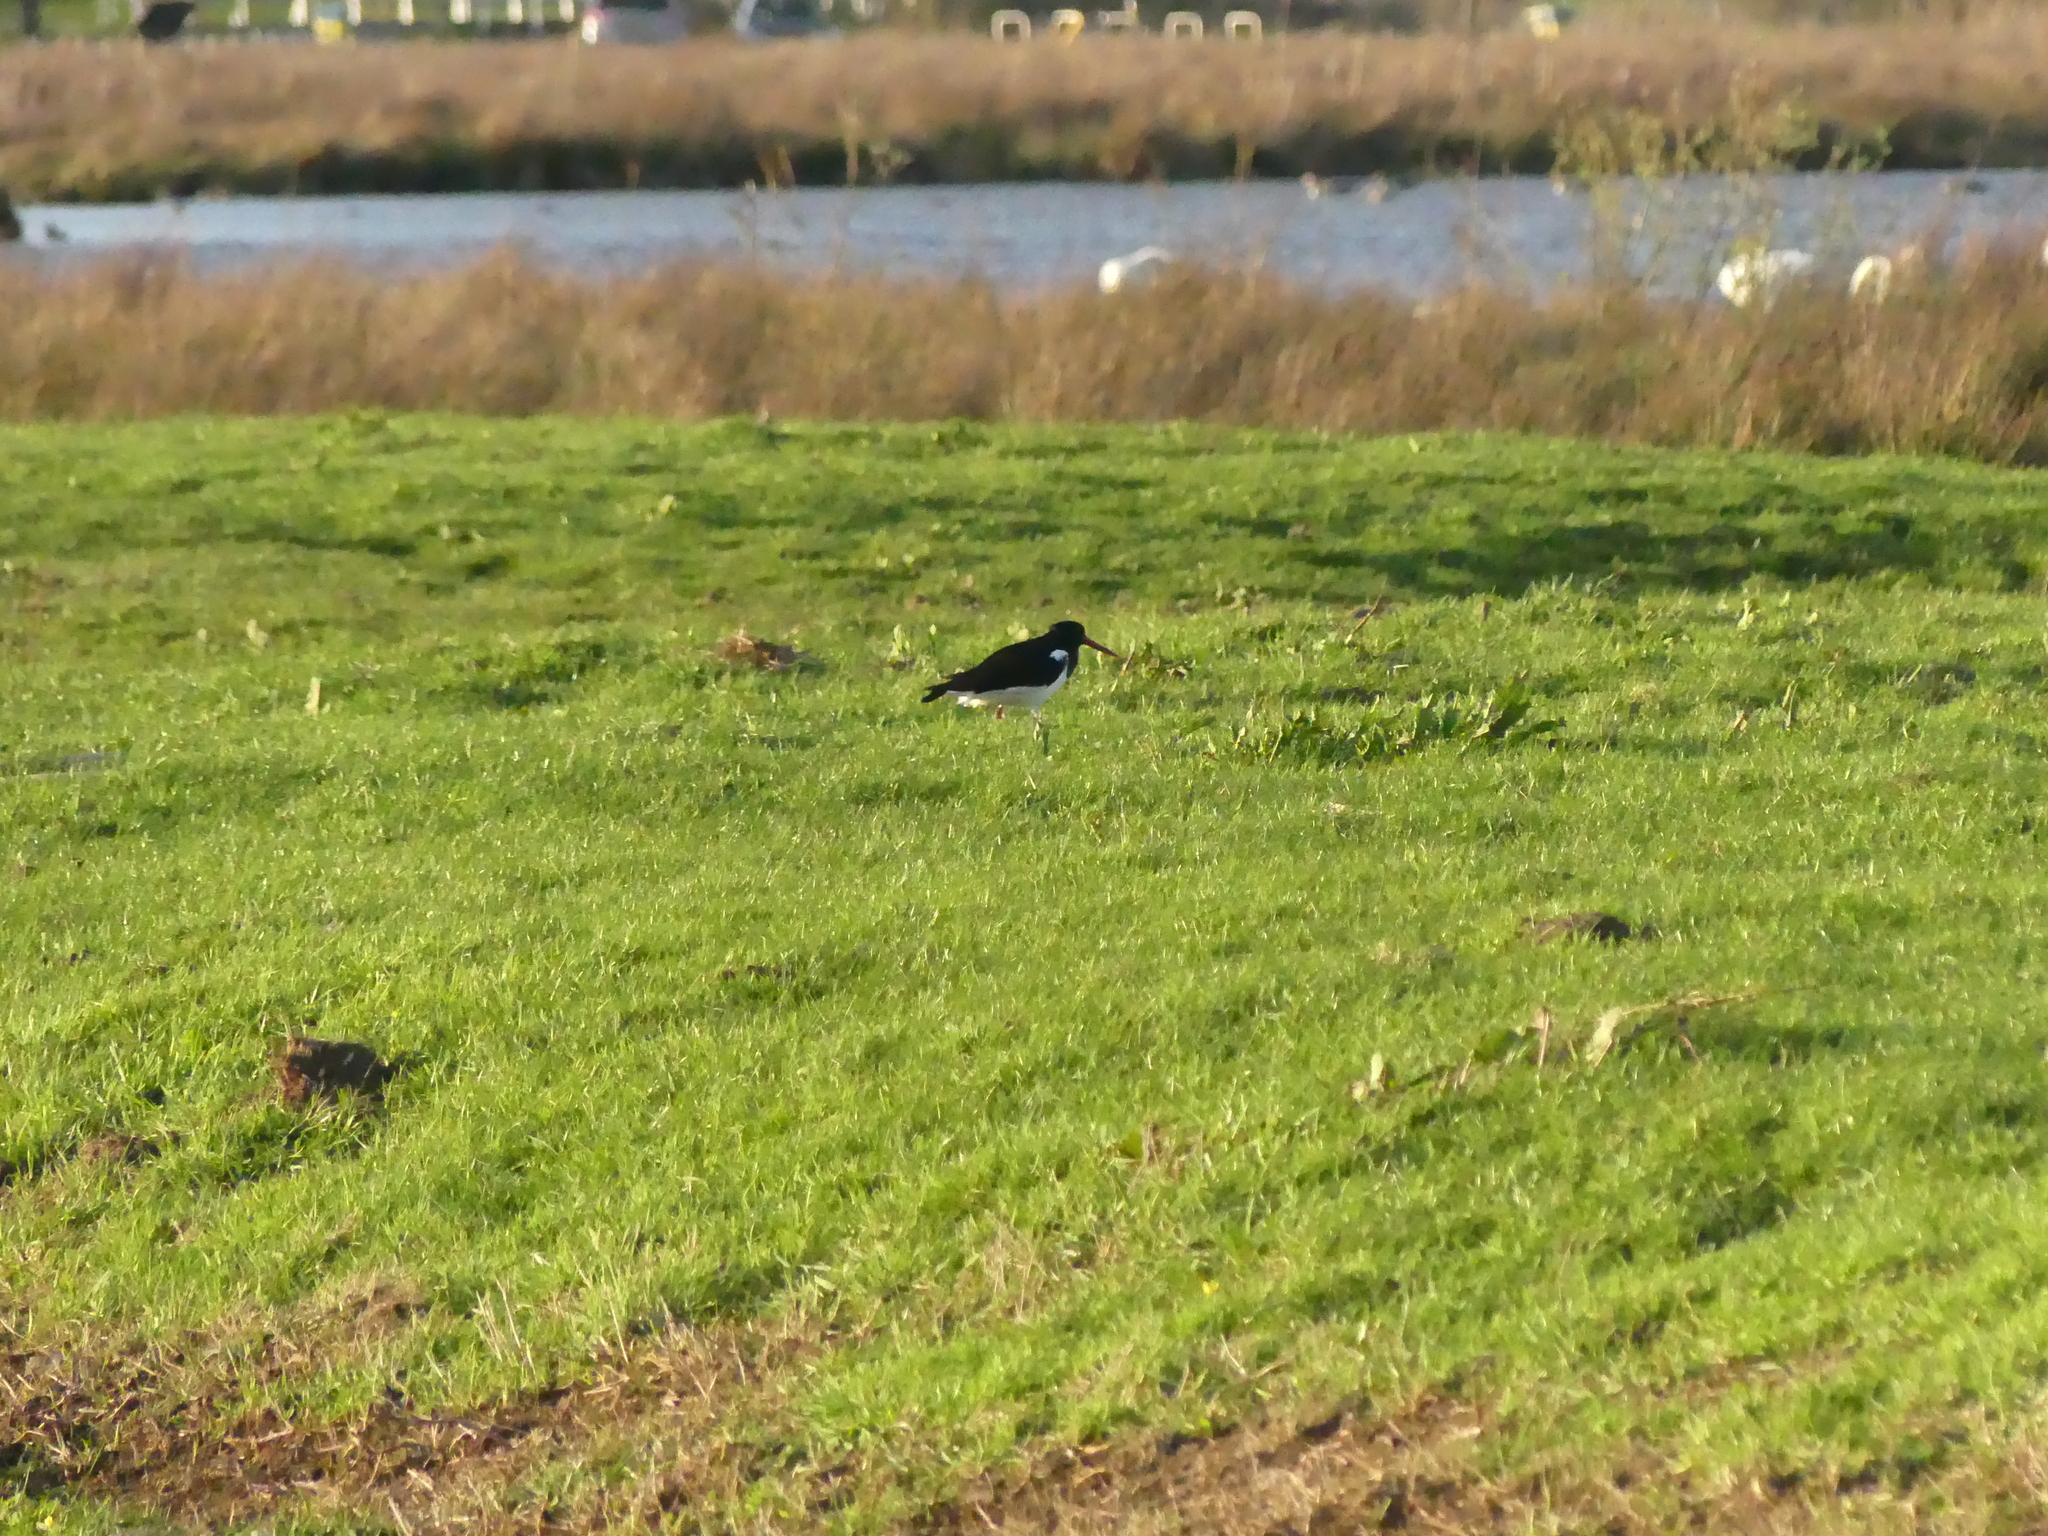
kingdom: Animalia
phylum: Chordata
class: Aves
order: Charadriiformes
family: Haematopodidae
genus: Haematopus
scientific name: Haematopus ostralegus
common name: Eurasian oystercatcher
